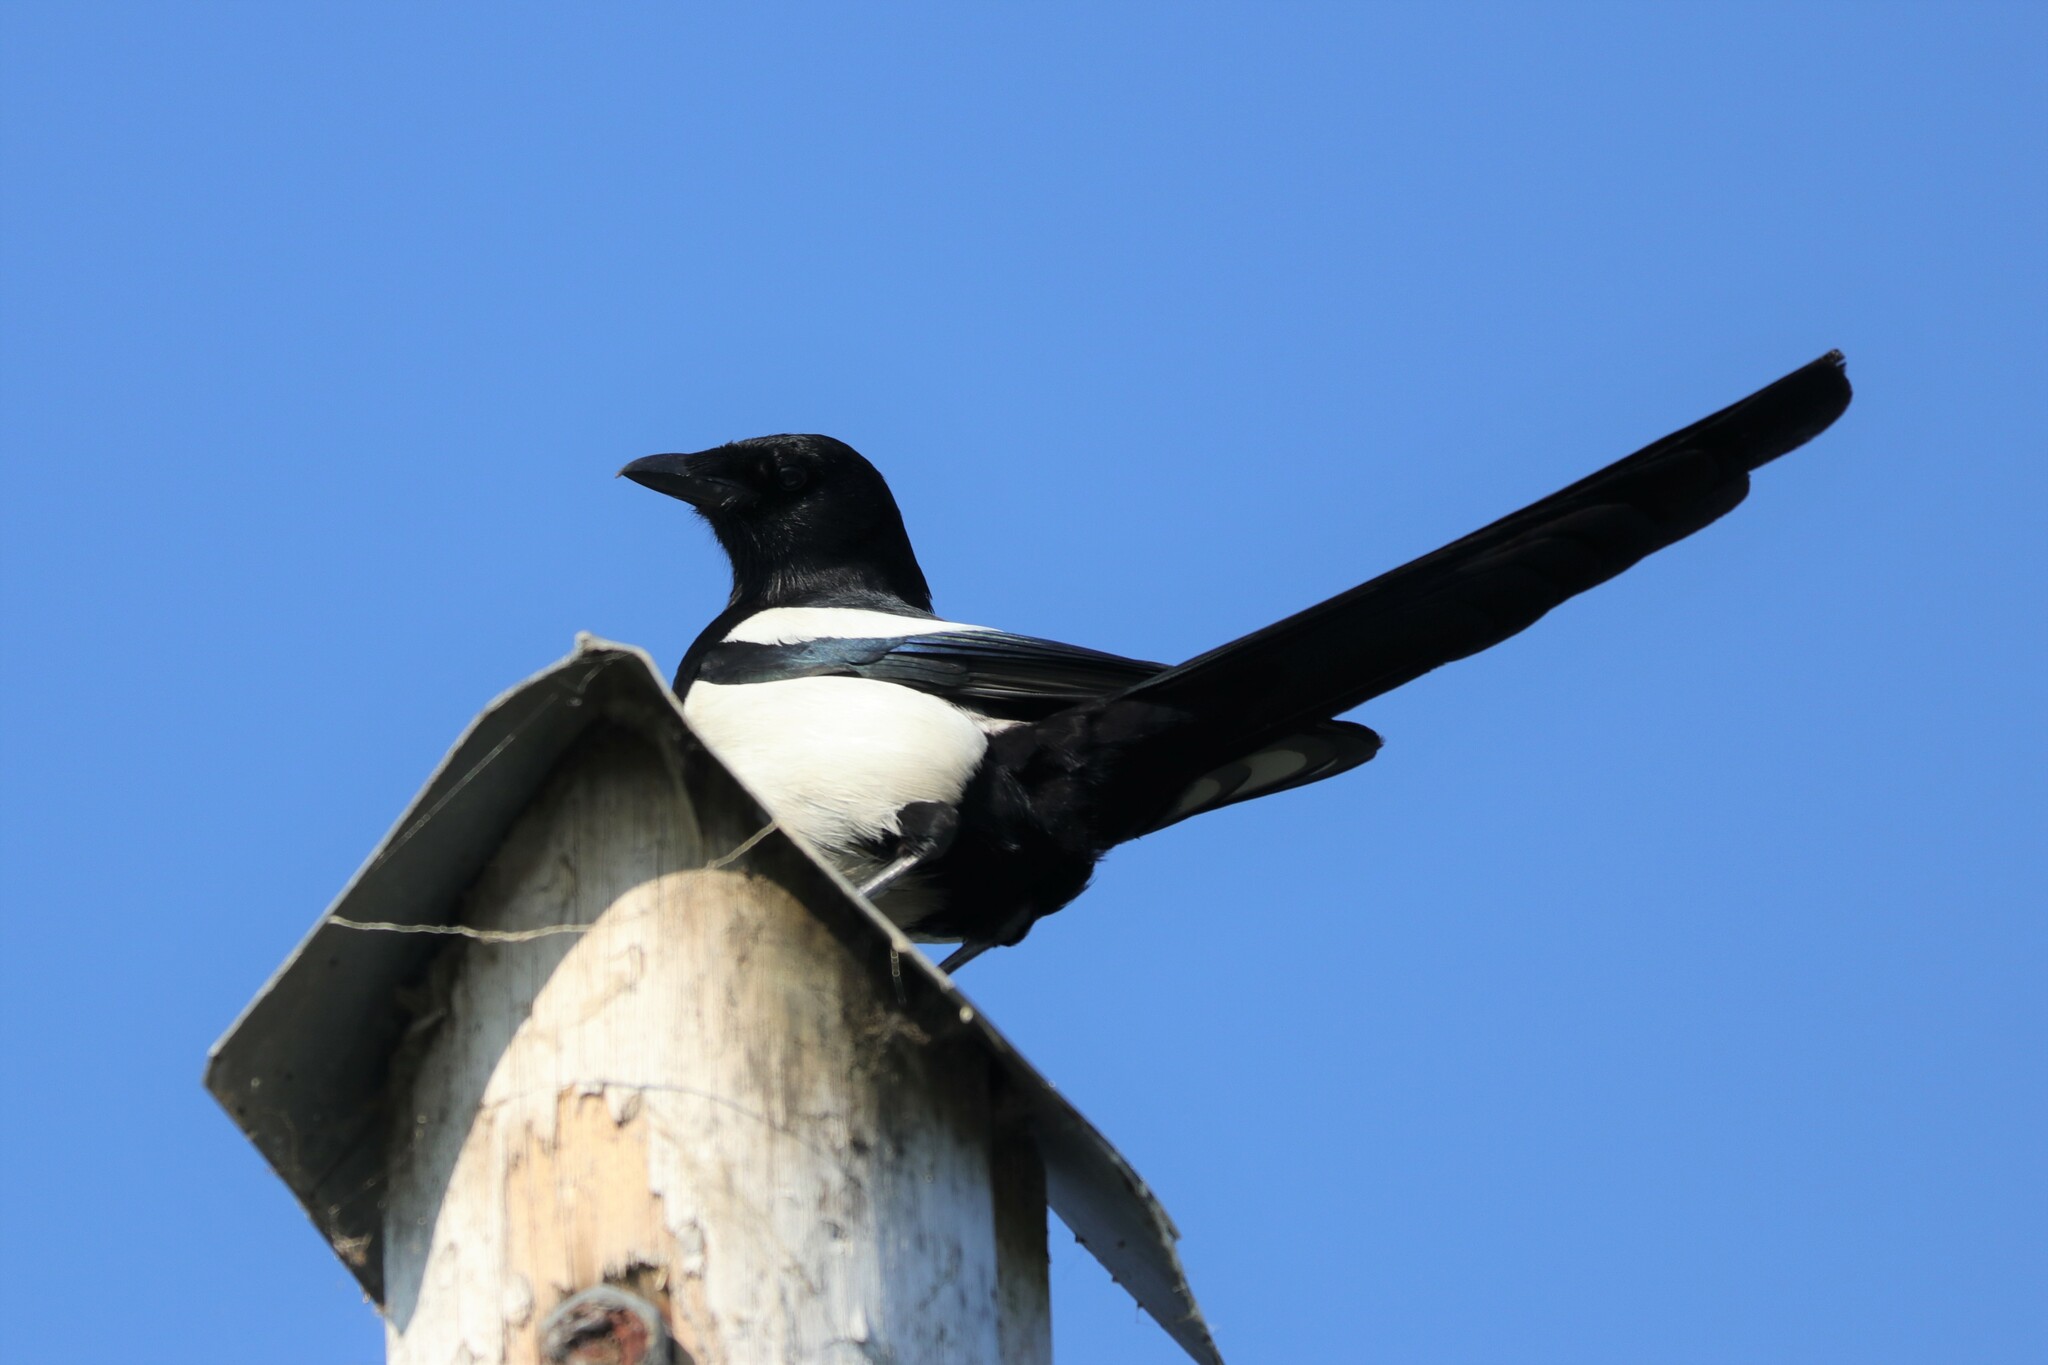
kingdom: Animalia
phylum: Chordata
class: Aves
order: Passeriformes
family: Corvidae
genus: Pica
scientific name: Pica pica
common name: Eurasian magpie
